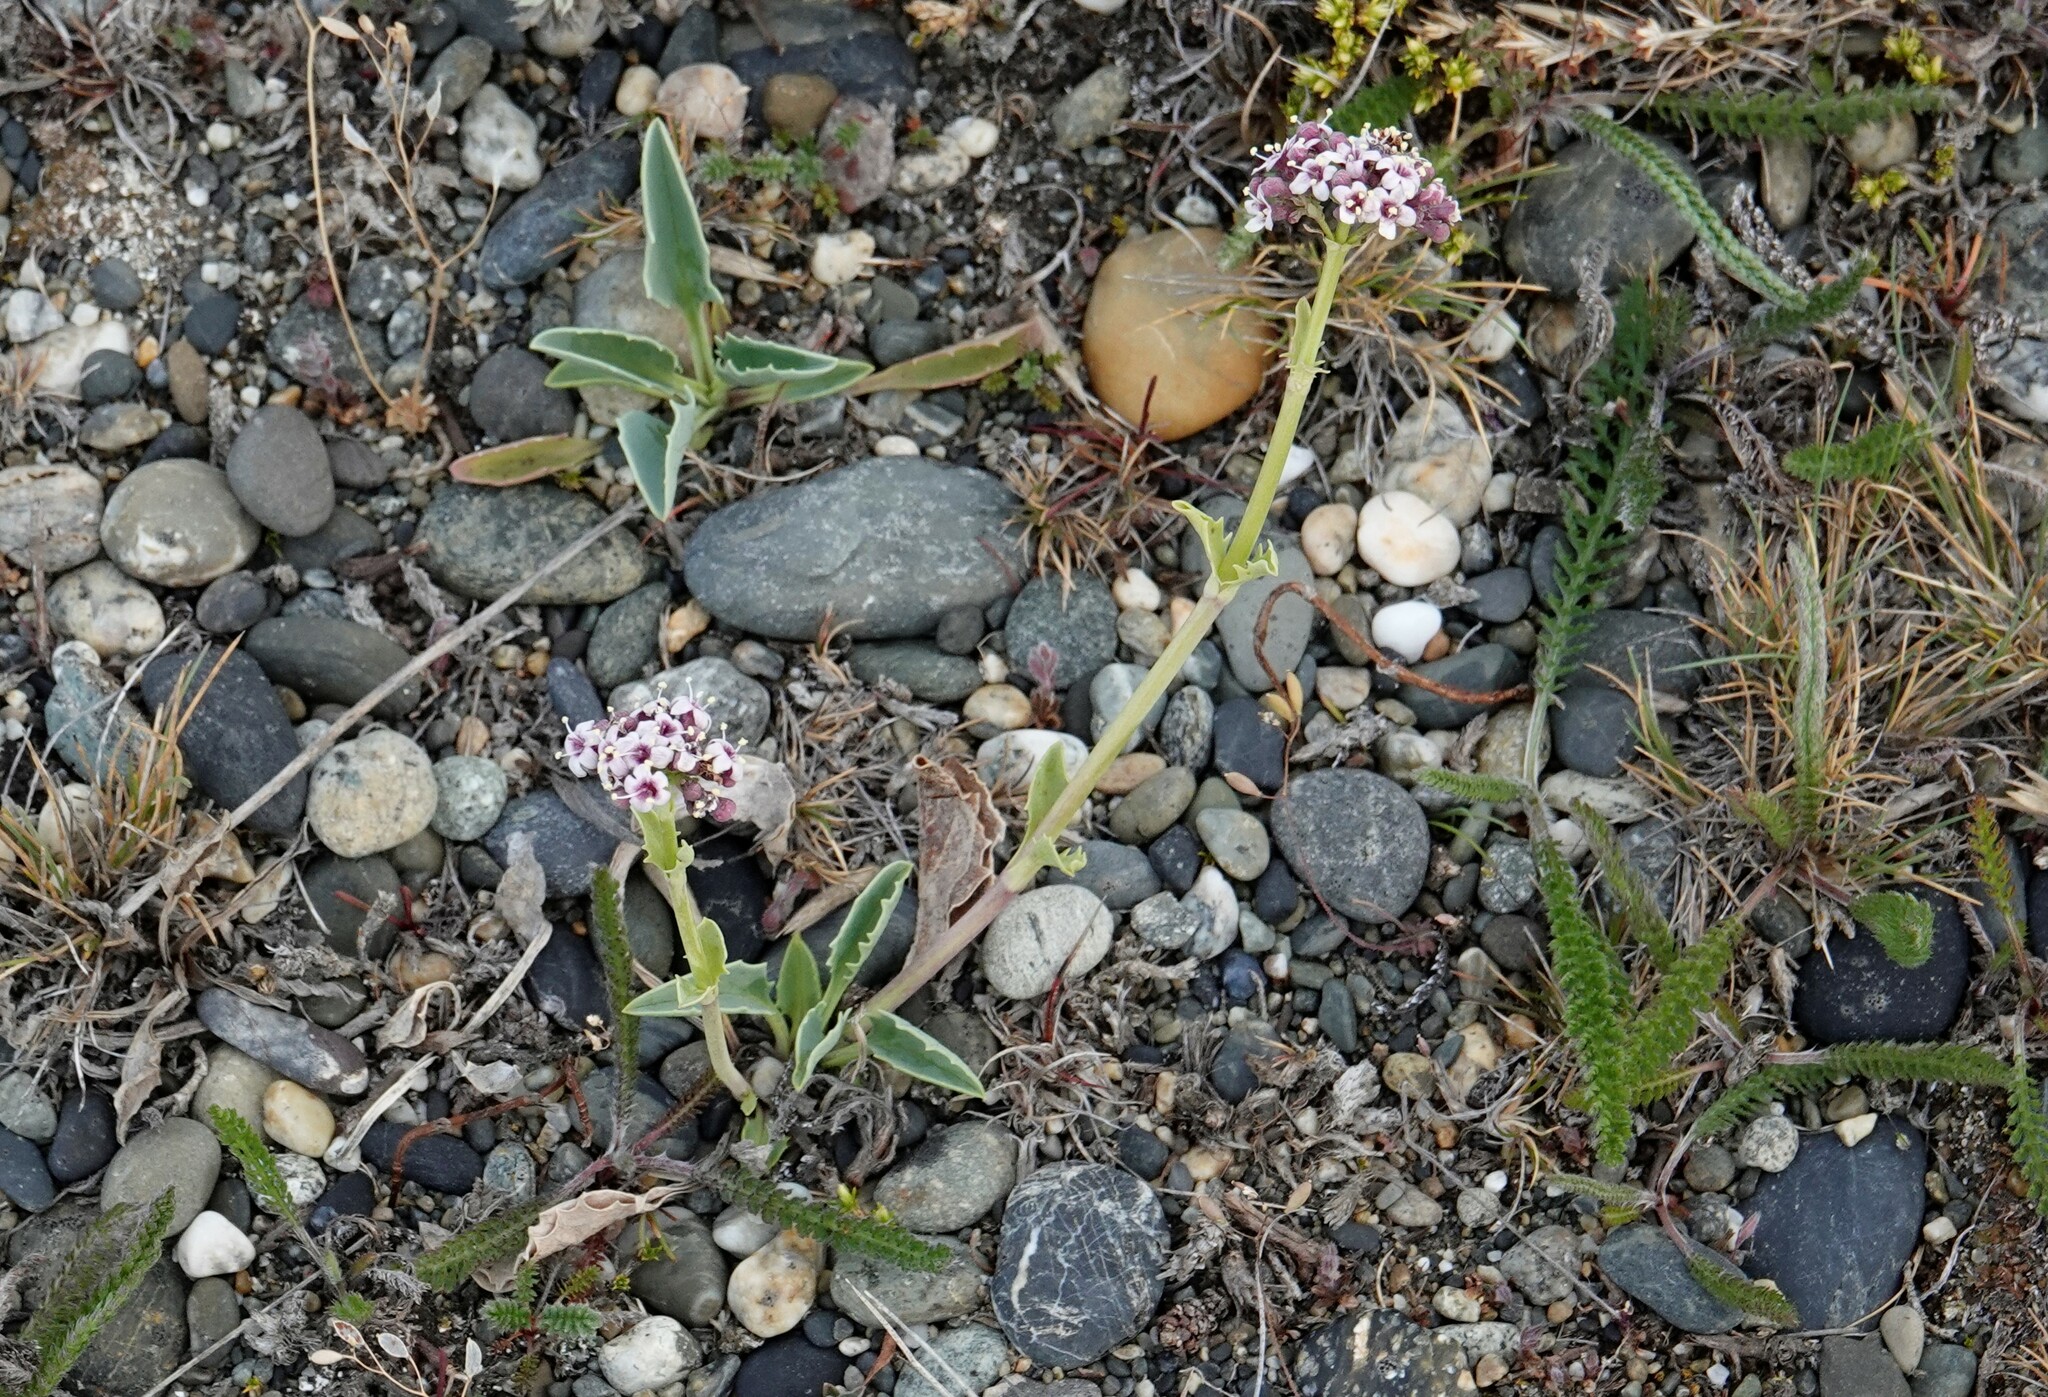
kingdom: Plantae
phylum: Tracheophyta
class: Magnoliopsida
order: Dipsacales
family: Caprifoliaceae
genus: Valeriana
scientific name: Valeriana carnosa
